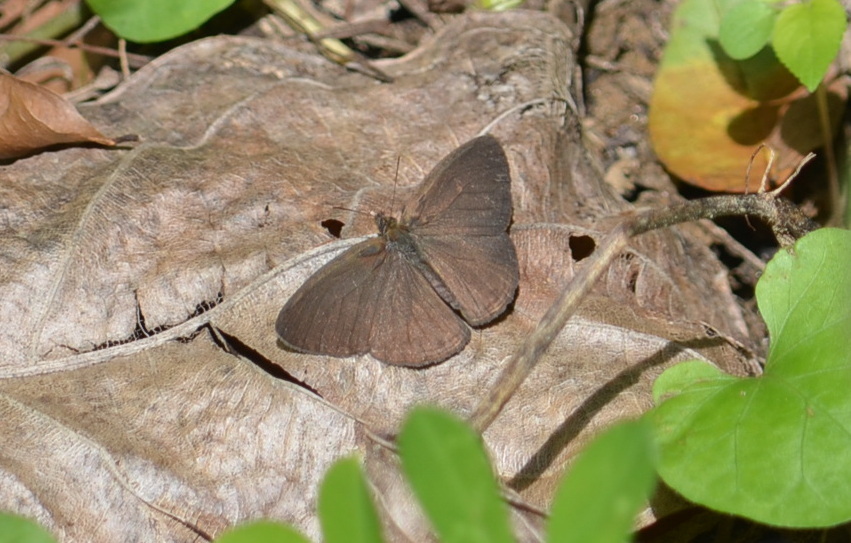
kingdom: Animalia
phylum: Arthropoda
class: Insecta
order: Lepidoptera
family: Nymphalidae
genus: Euptychiina
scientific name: Euptychiina
